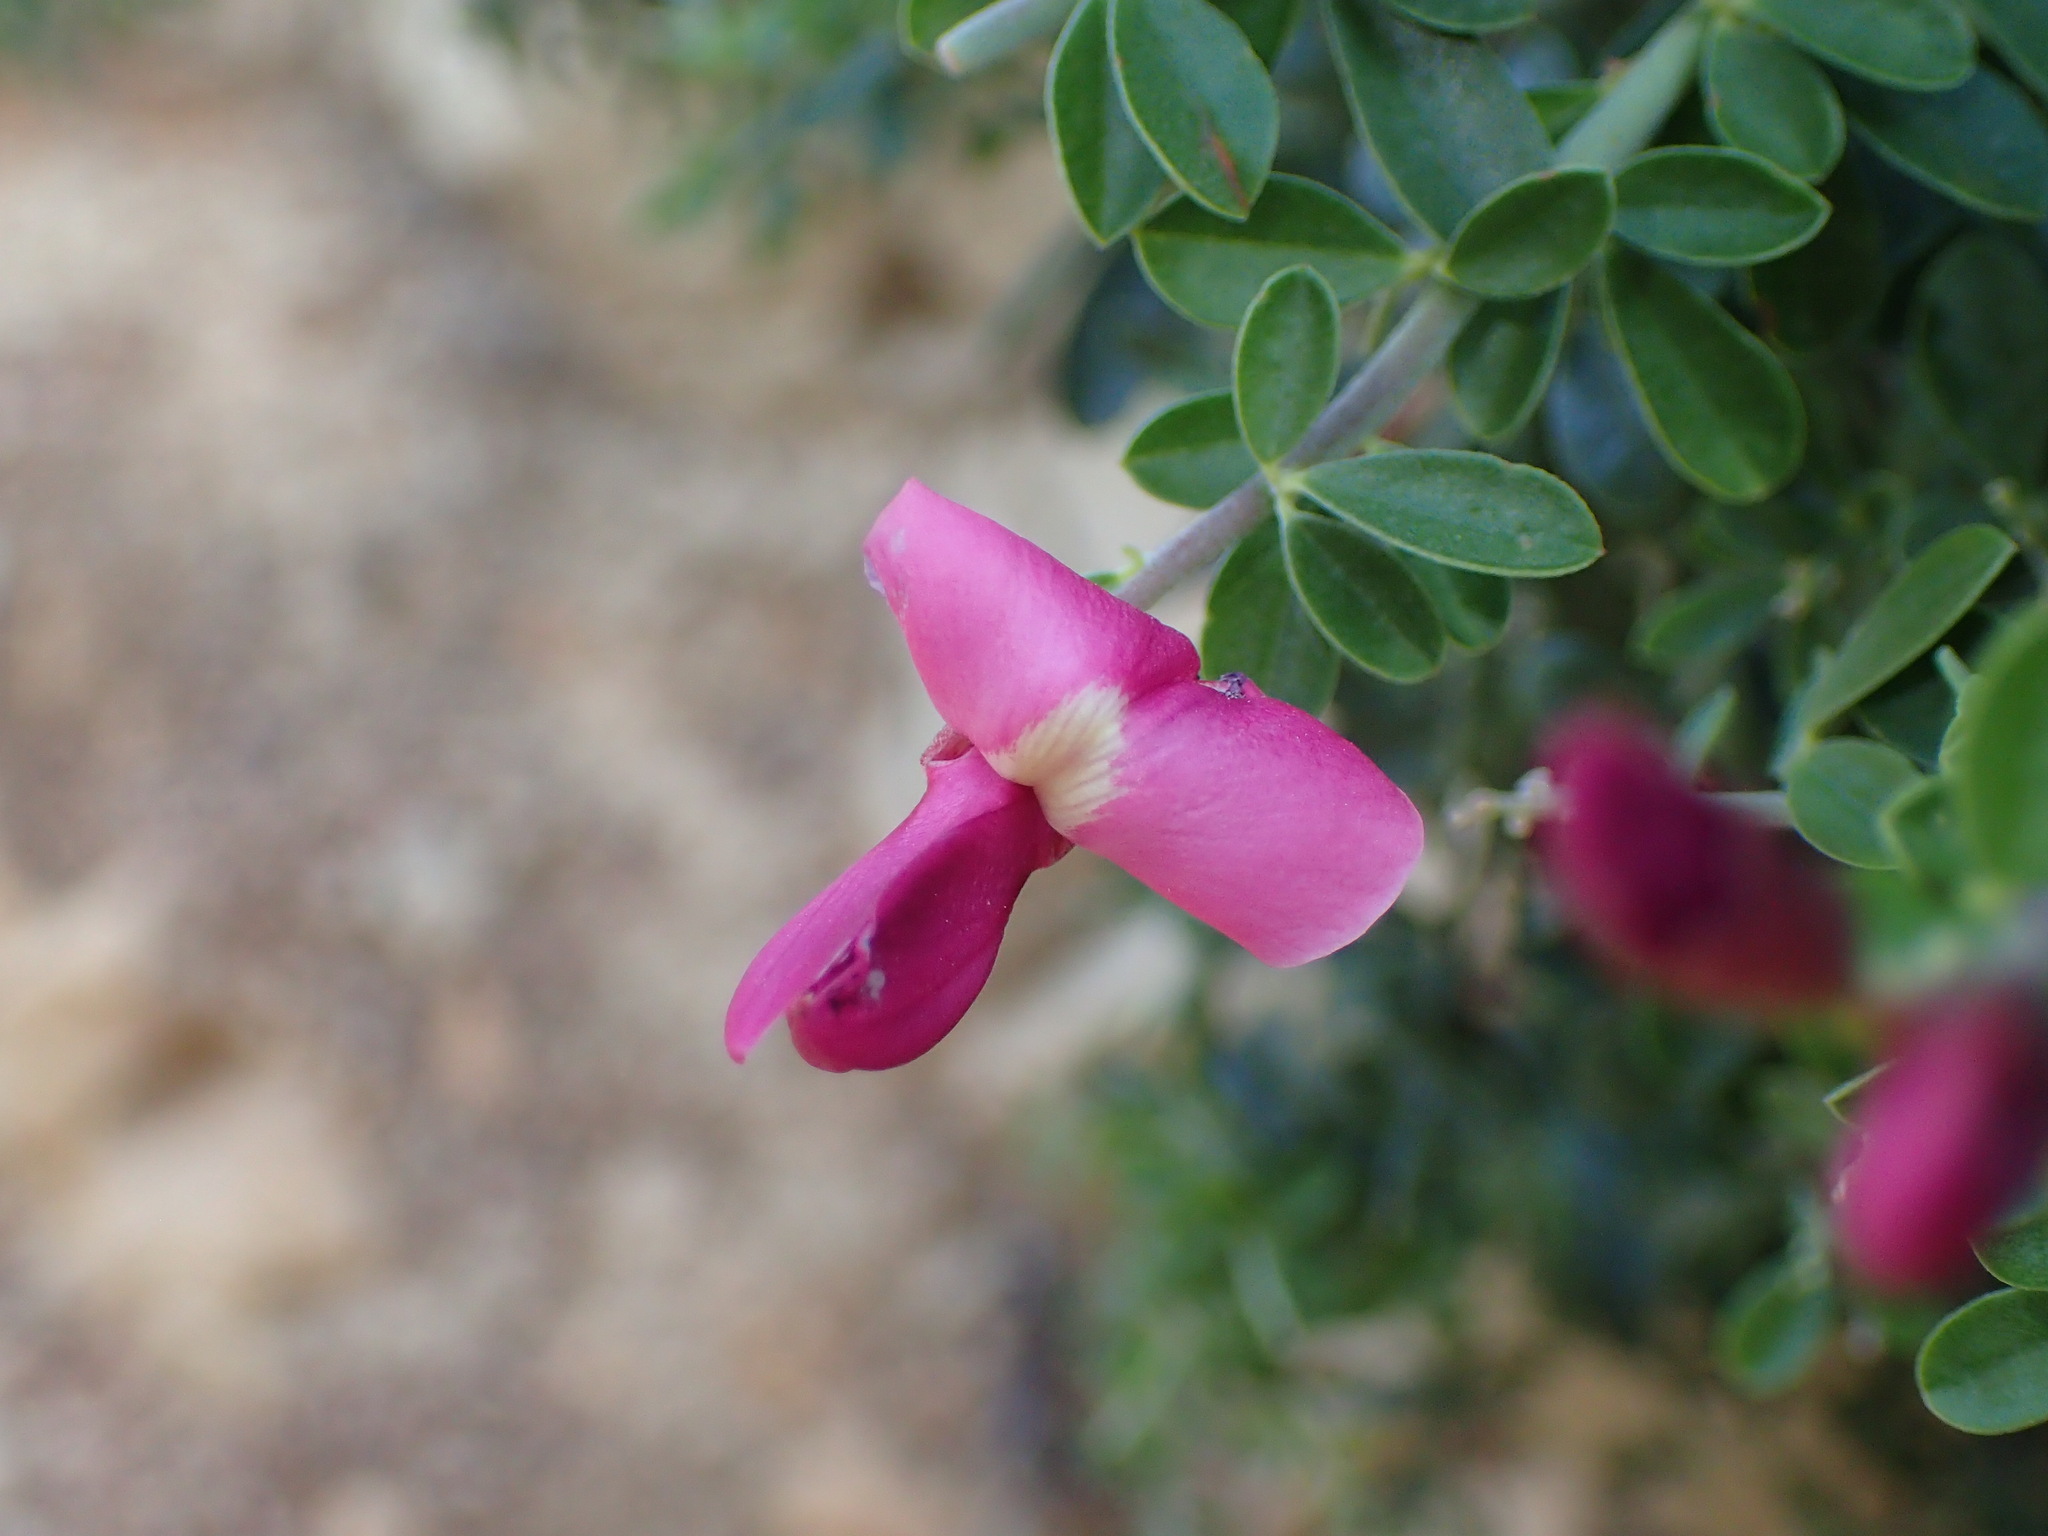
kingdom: Plantae
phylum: Tracheophyta
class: Magnoliopsida
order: Fabales
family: Fabaceae
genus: Pickeringia
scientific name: Pickeringia montana
